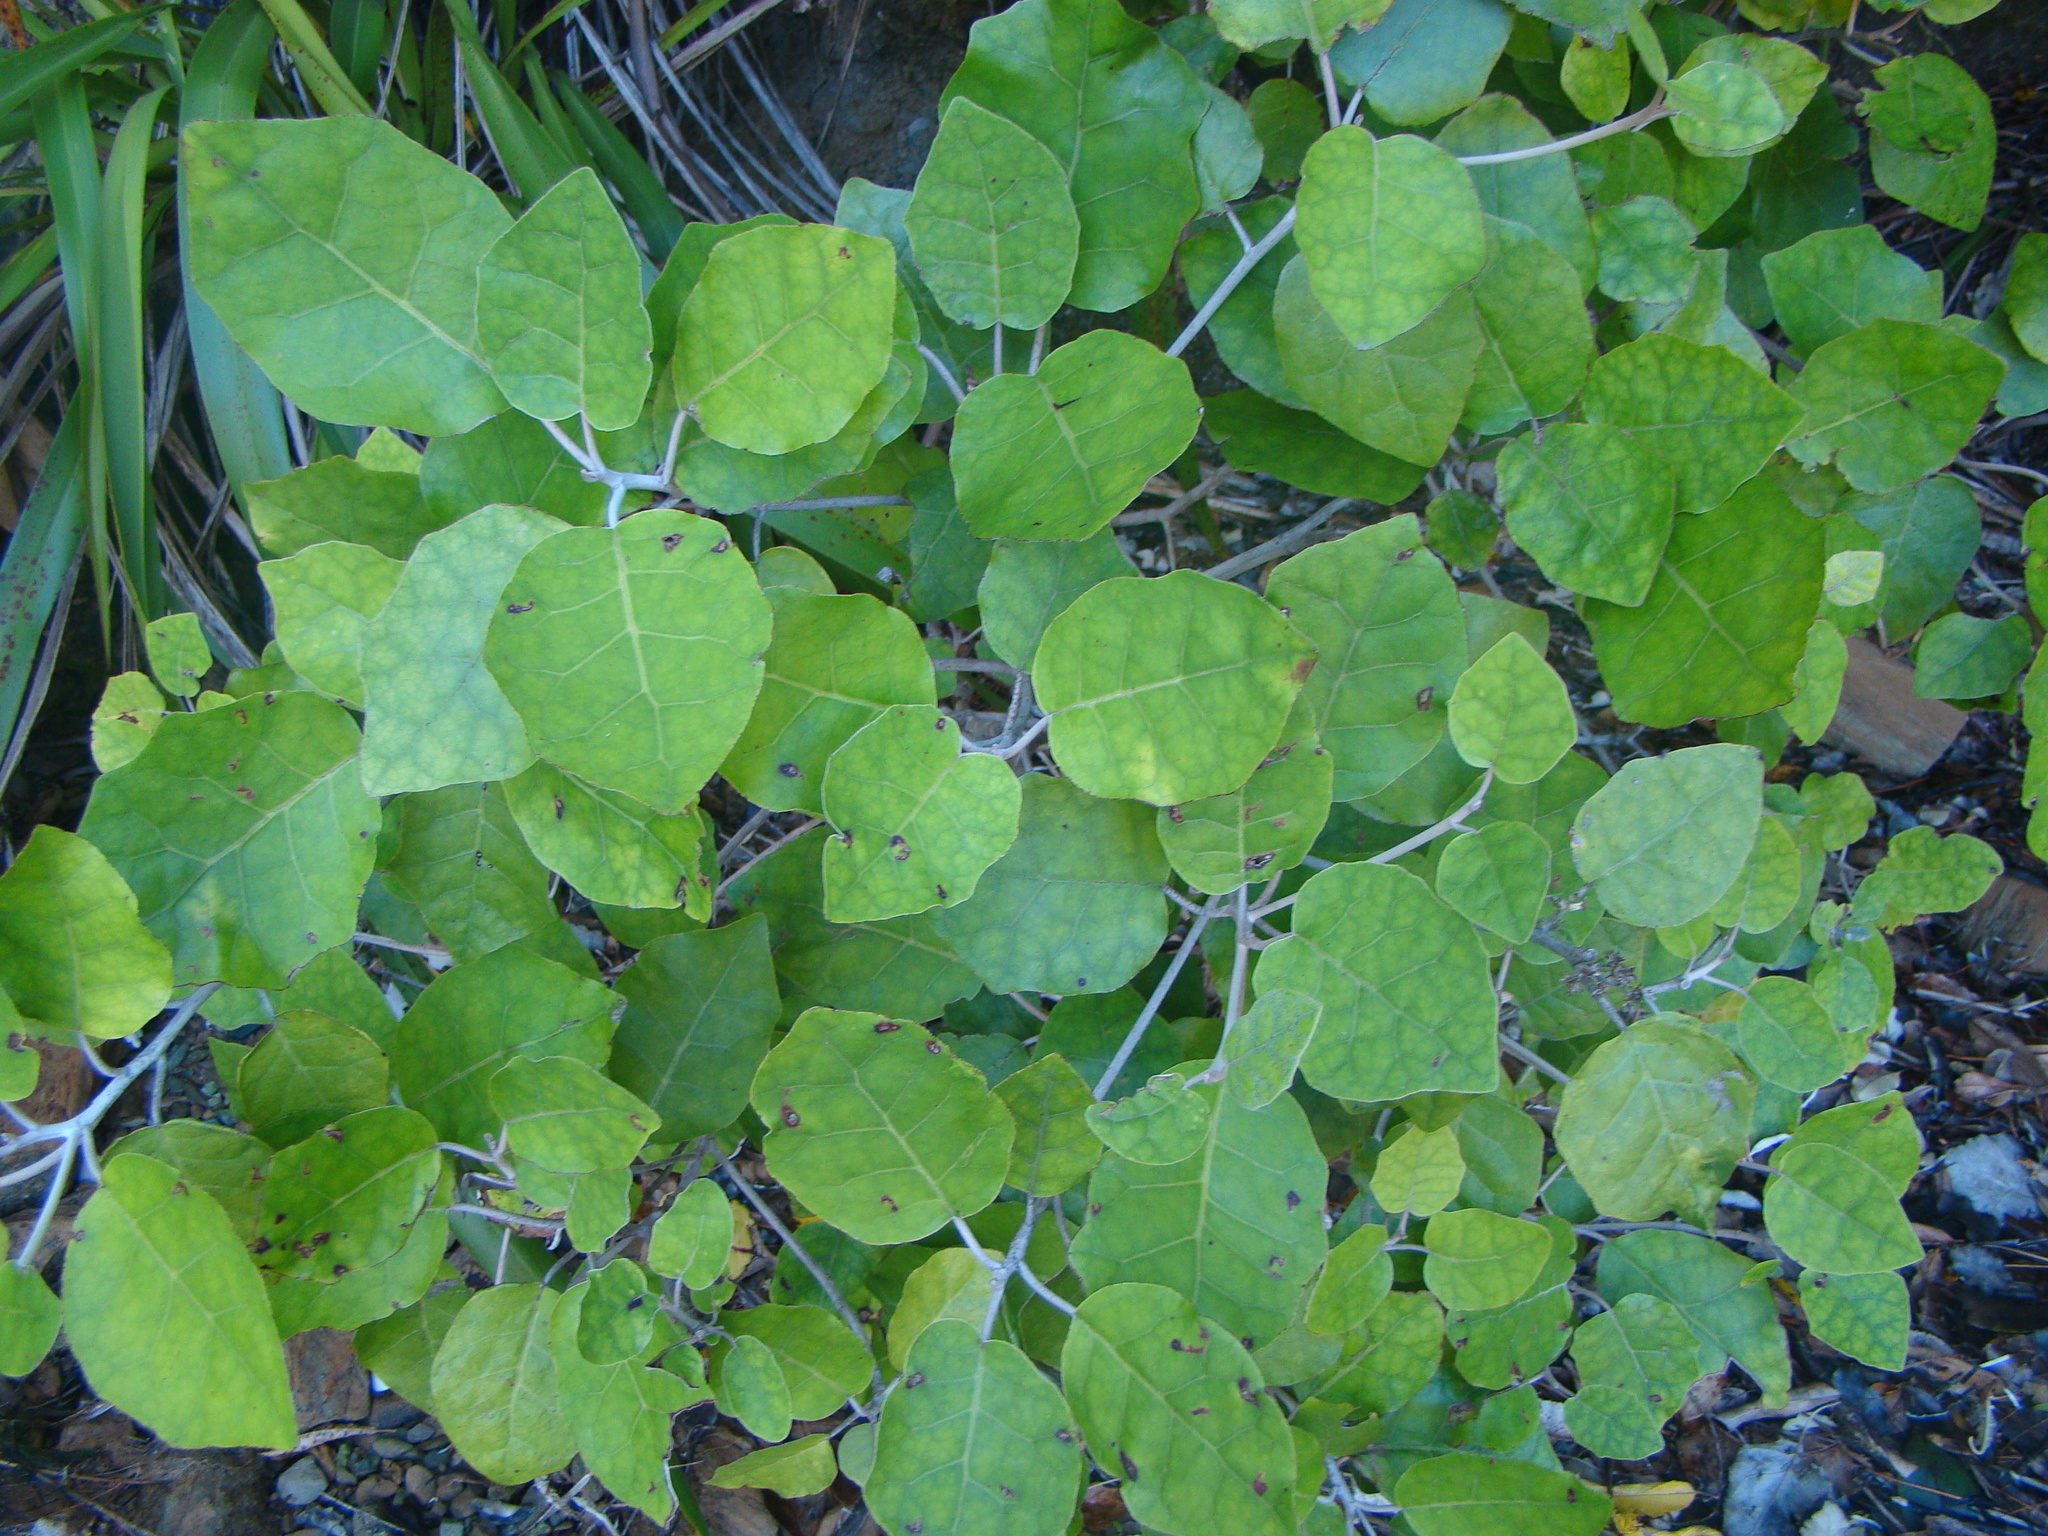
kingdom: Plantae
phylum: Tracheophyta
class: Magnoliopsida
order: Asterales
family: Asteraceae
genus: Brachyglottis
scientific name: Brachyglottis repanda
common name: Hedge ragwort
